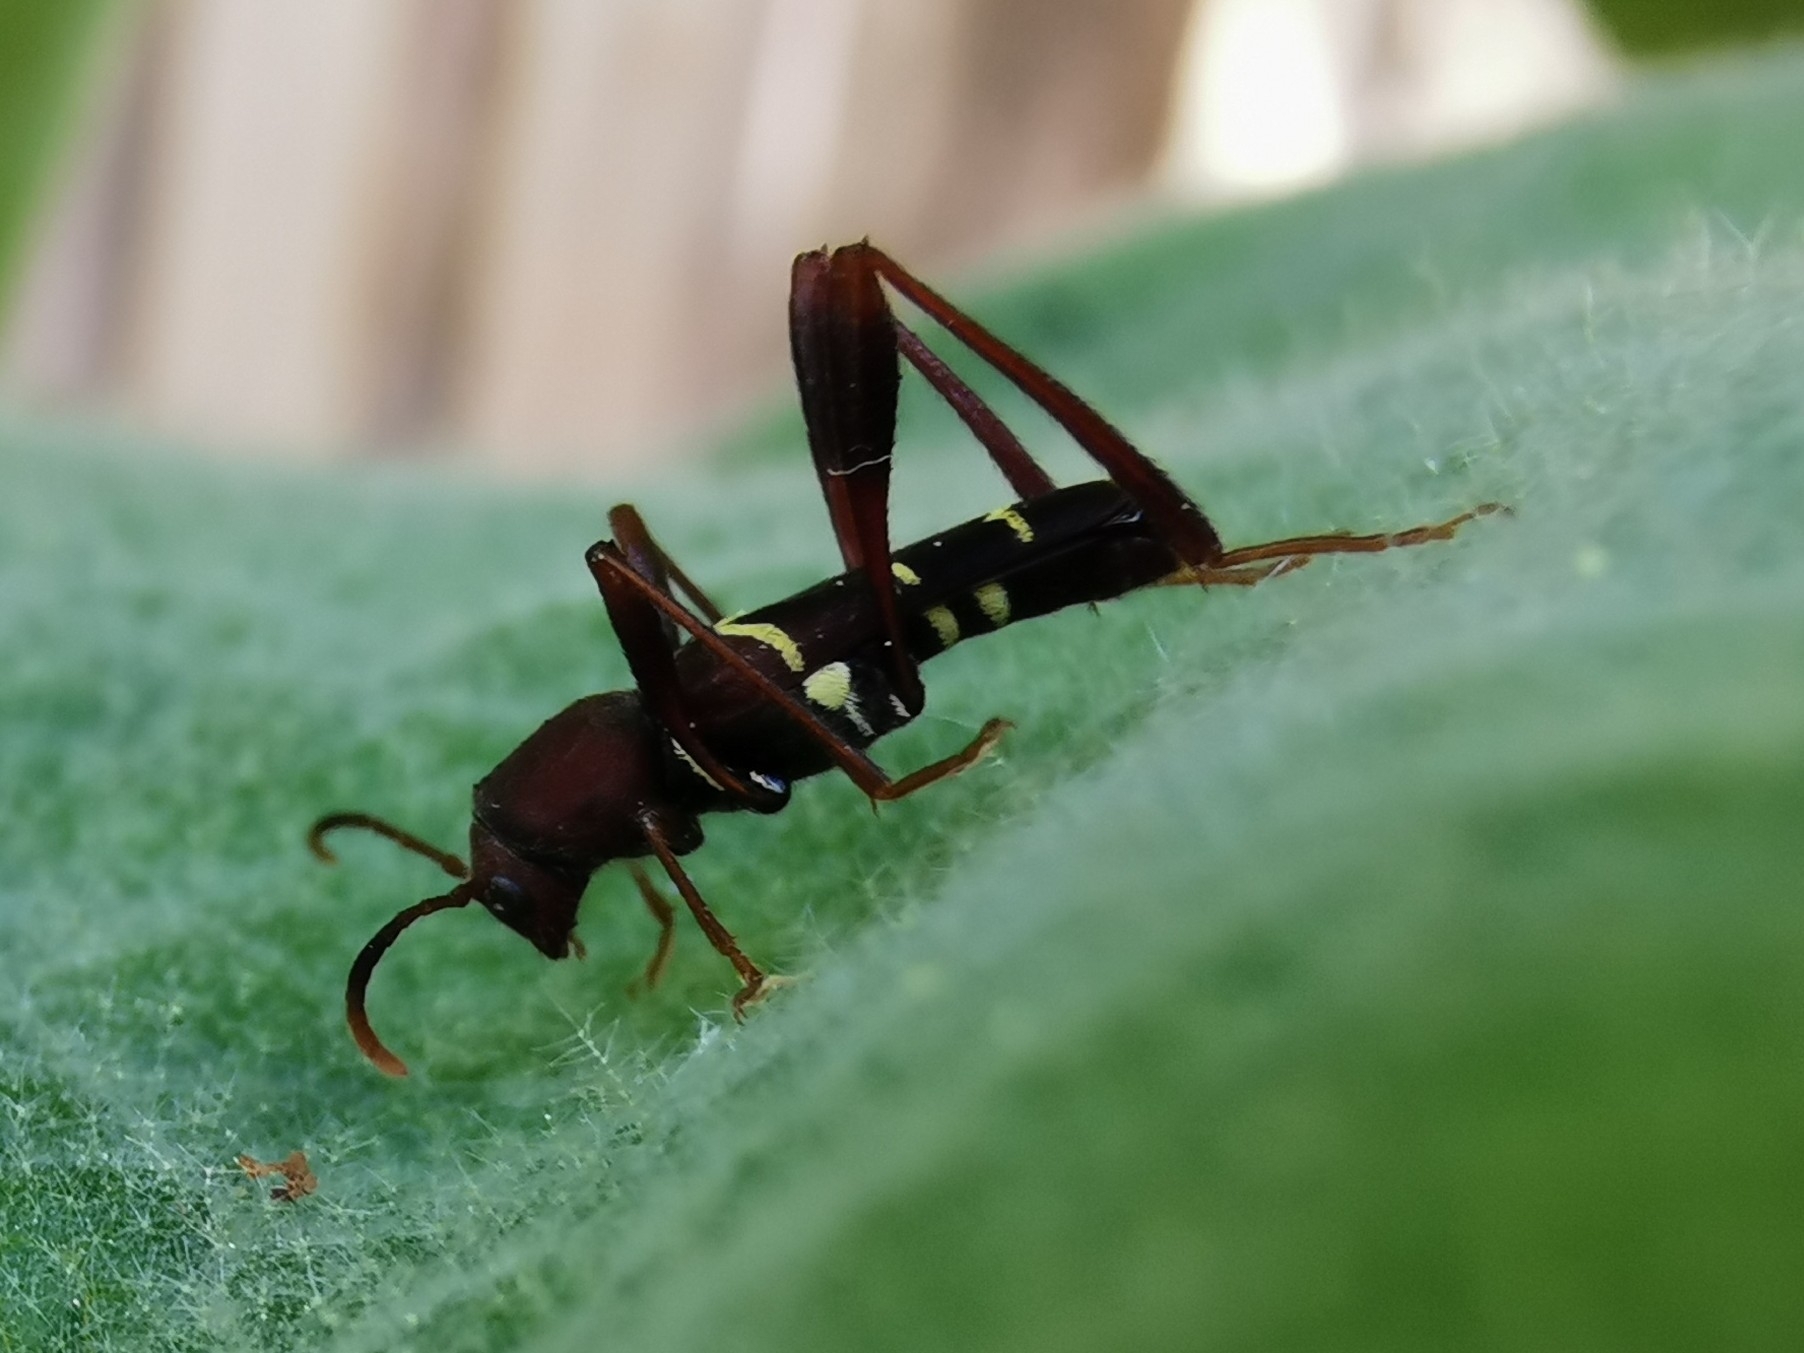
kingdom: Animalia
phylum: Arthropoda
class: Insecta
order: Coleoptera
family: Cerambycidae
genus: Neoclytus
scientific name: Neoclytus acuminatus
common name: Read-headed ash borer
